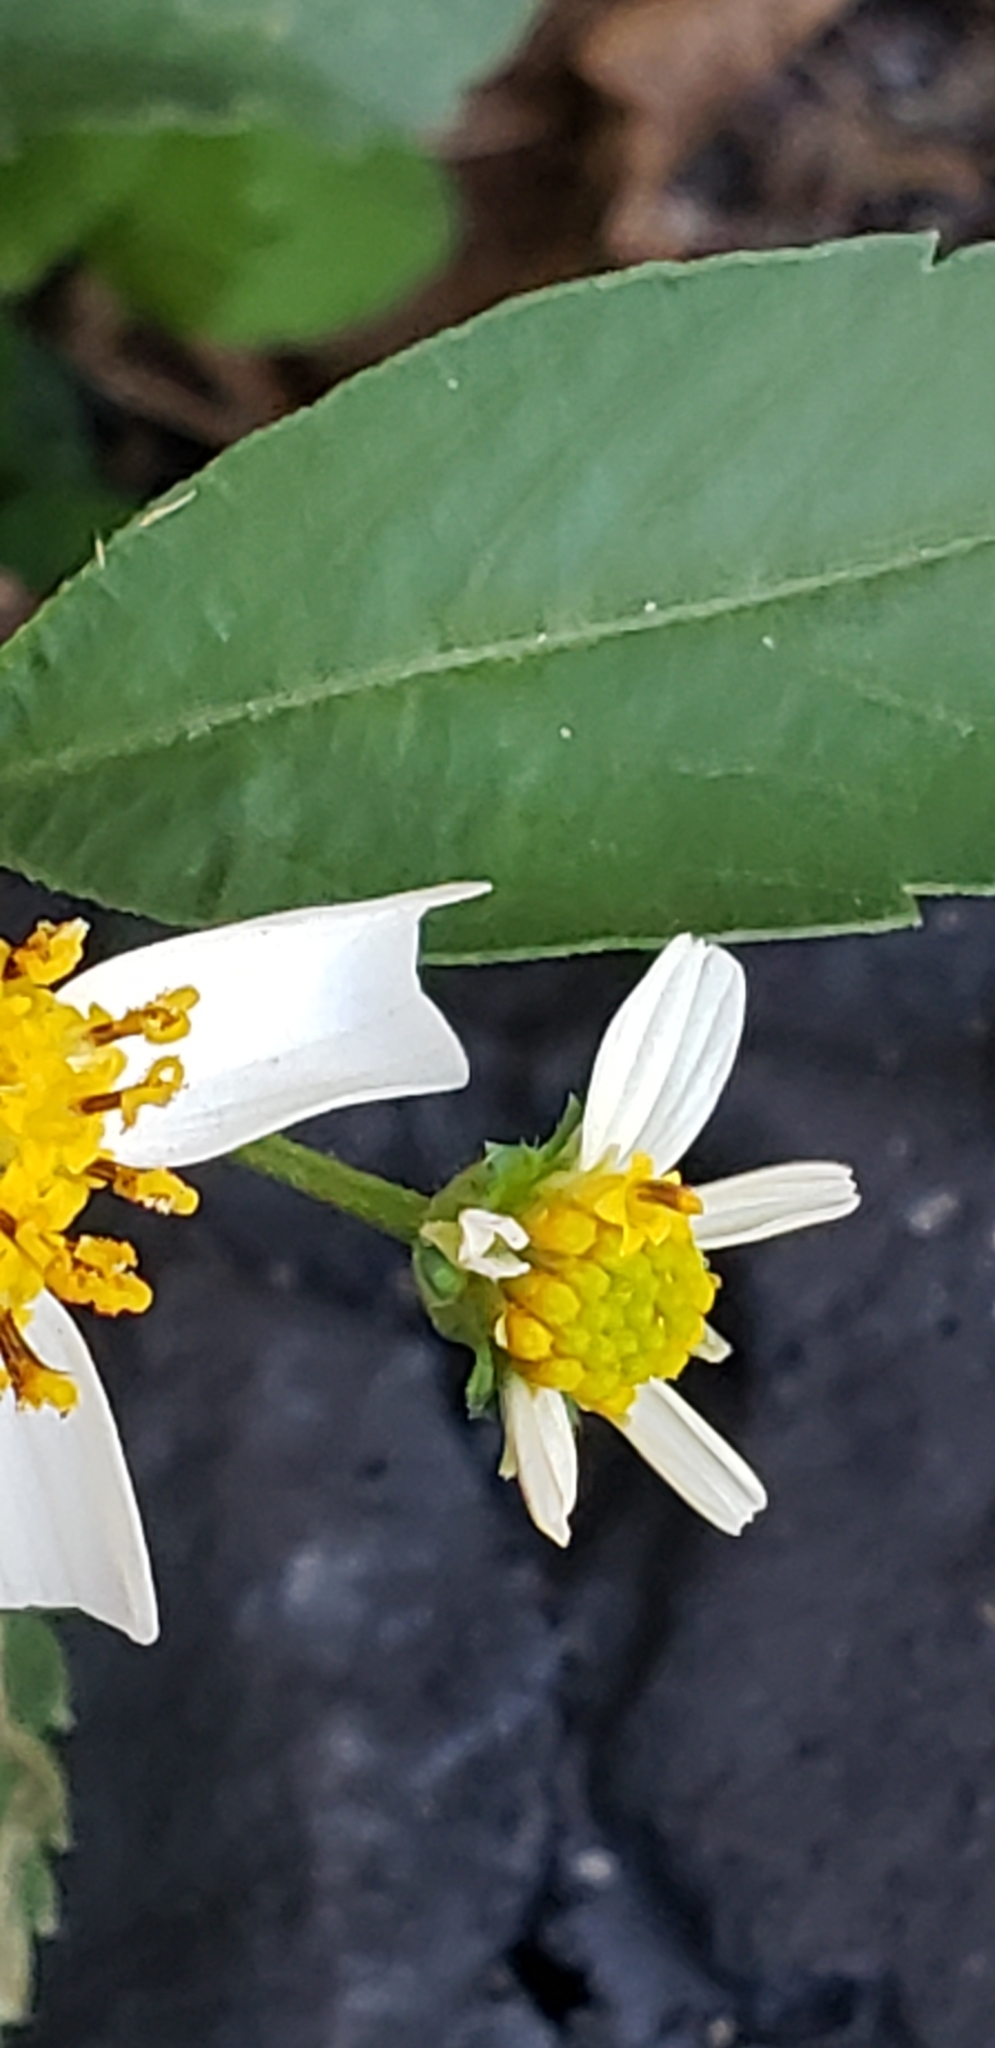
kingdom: Plantae
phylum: Tracheophyta
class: Magnoliopsida
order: Asterales
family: Asteraceae
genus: Bidens
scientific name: Bidens alba
